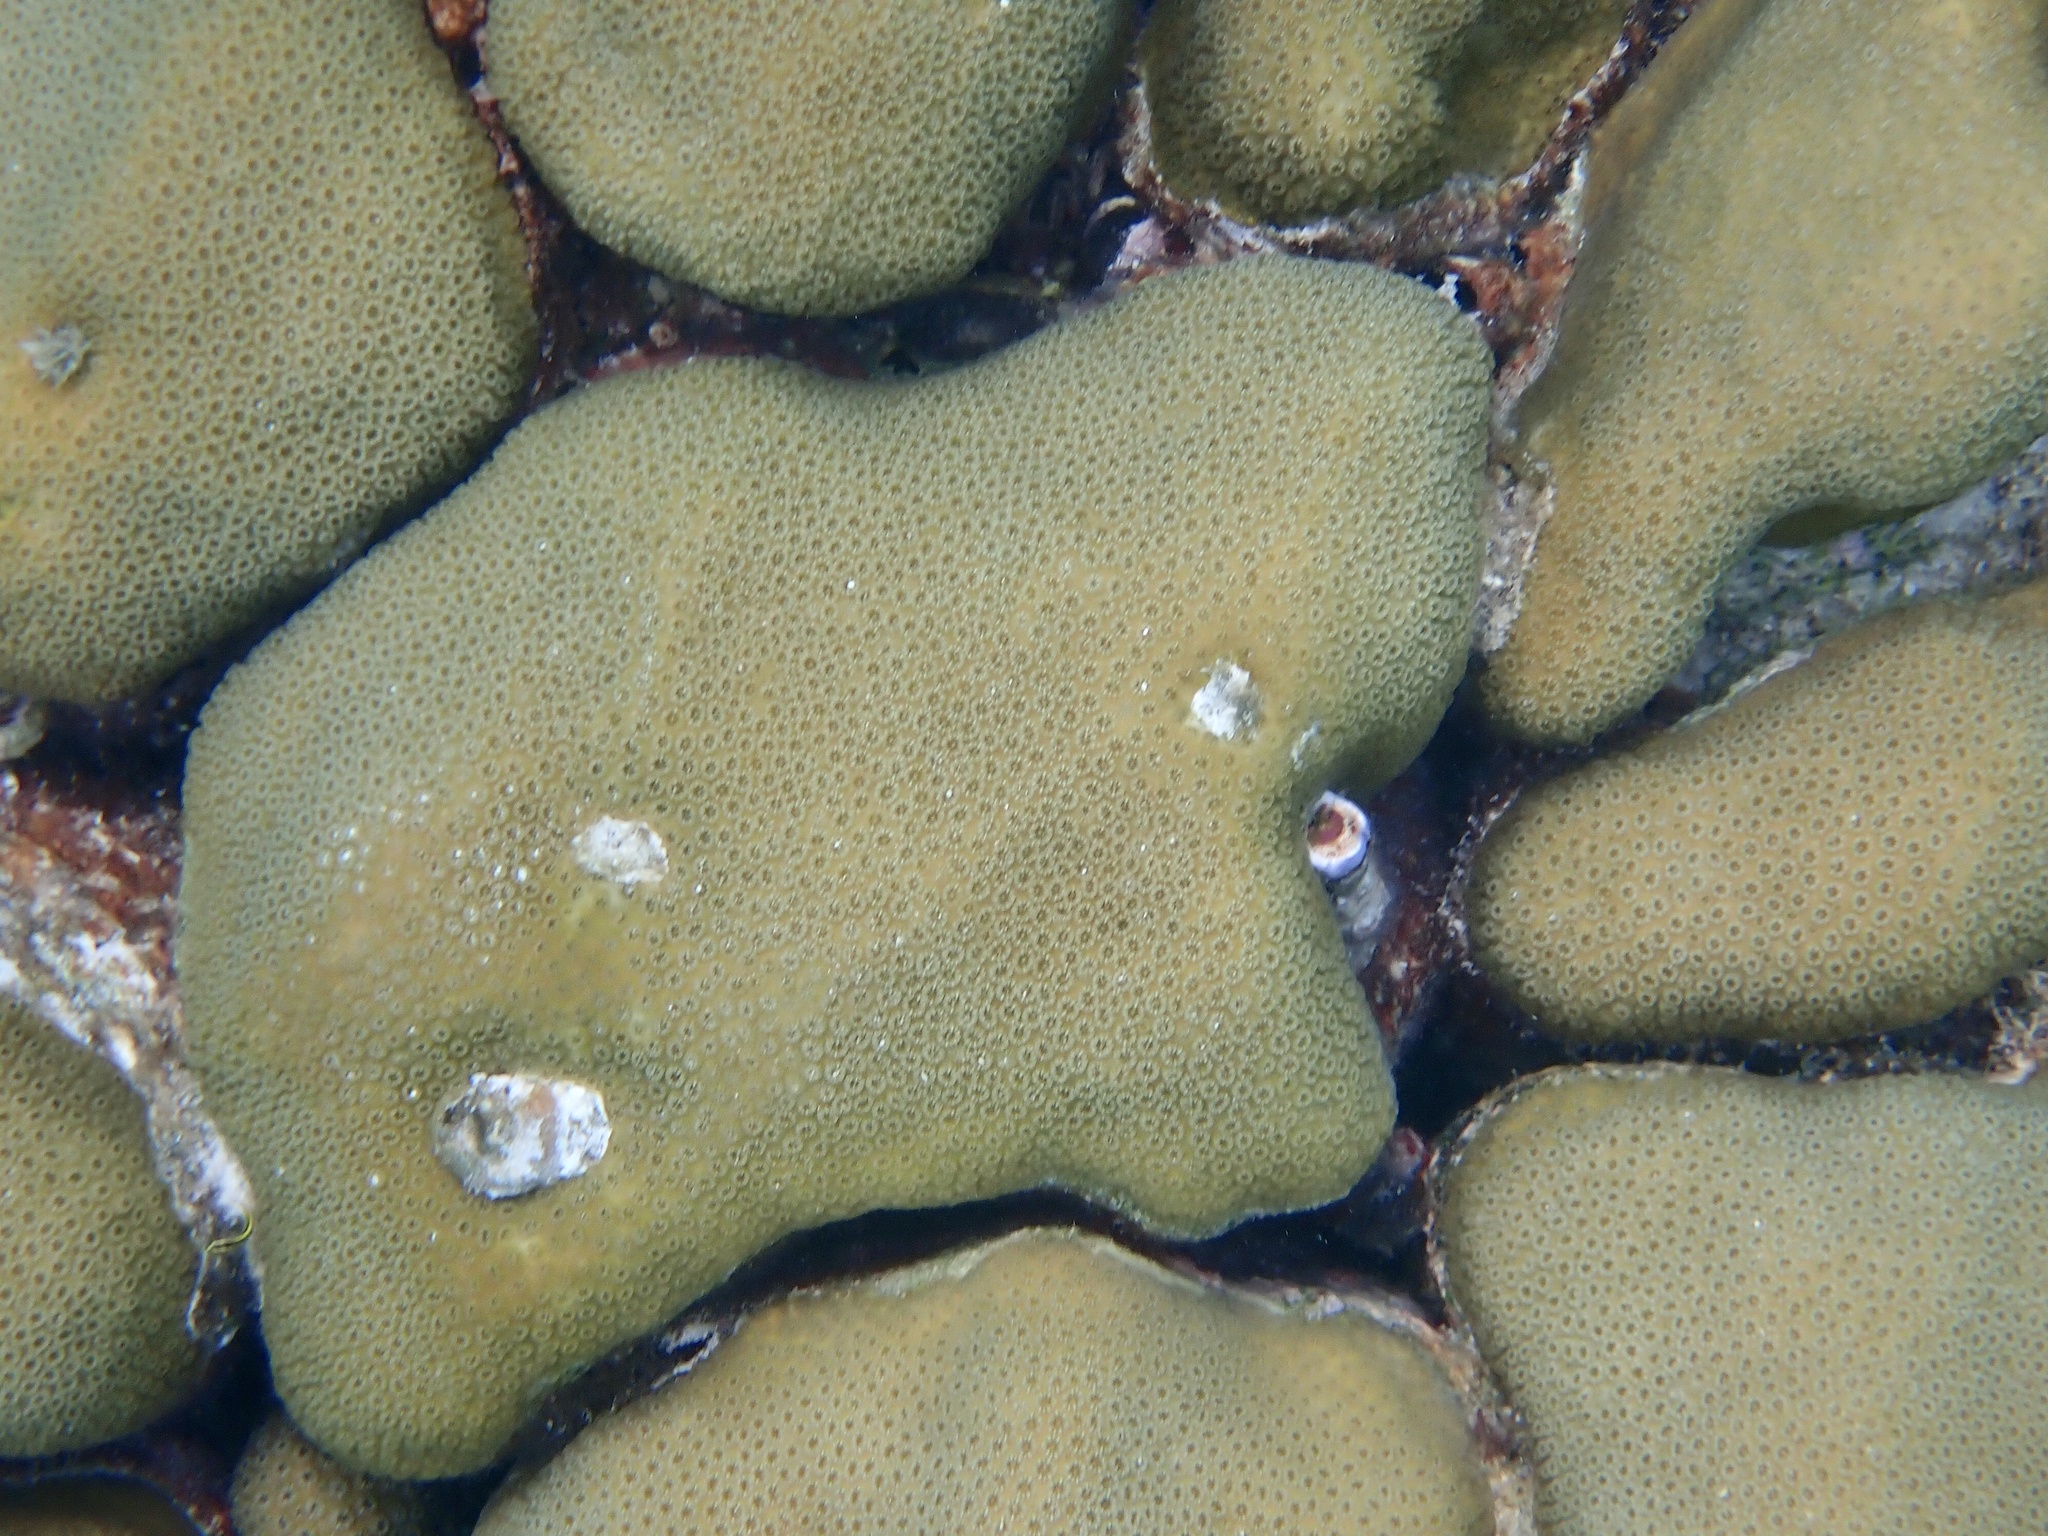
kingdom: Animalia
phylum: Cnidaria
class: Anthozoa
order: Scleractinia
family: Merulinidae
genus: Orbicella
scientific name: Orbicella annularis
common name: Boulder star coral
